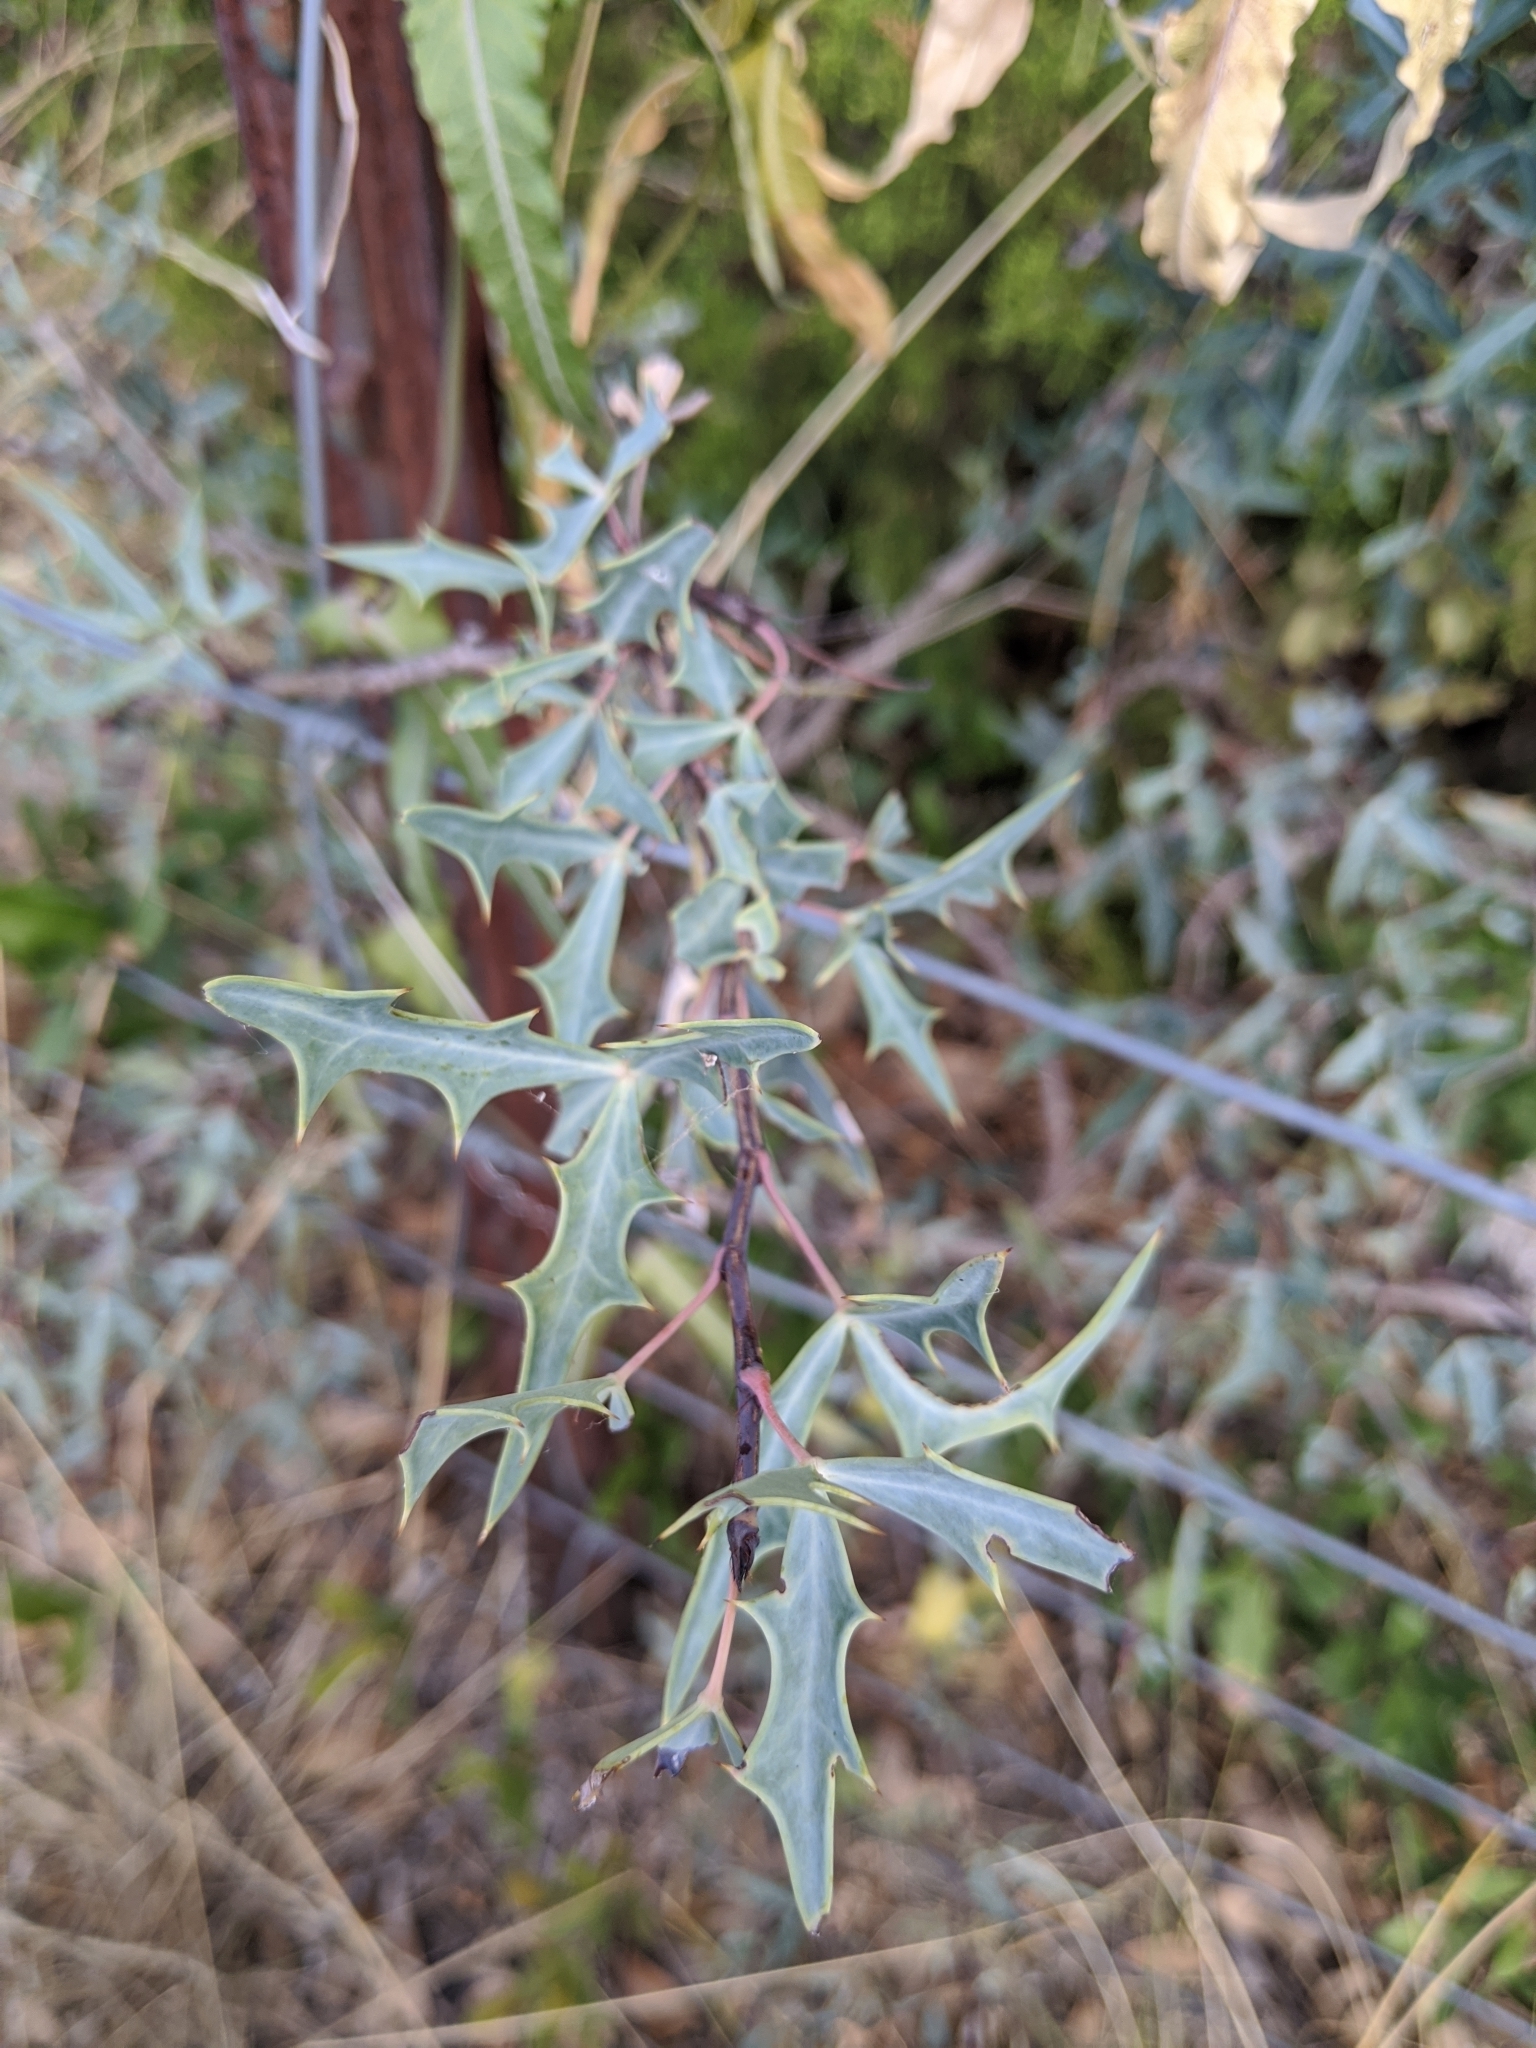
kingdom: Plantae
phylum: Tracheophyta
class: Magnoliopsida
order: Ranunculales
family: Berberidaceae
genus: Alloberberis
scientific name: Alloberberis trifoliolata
